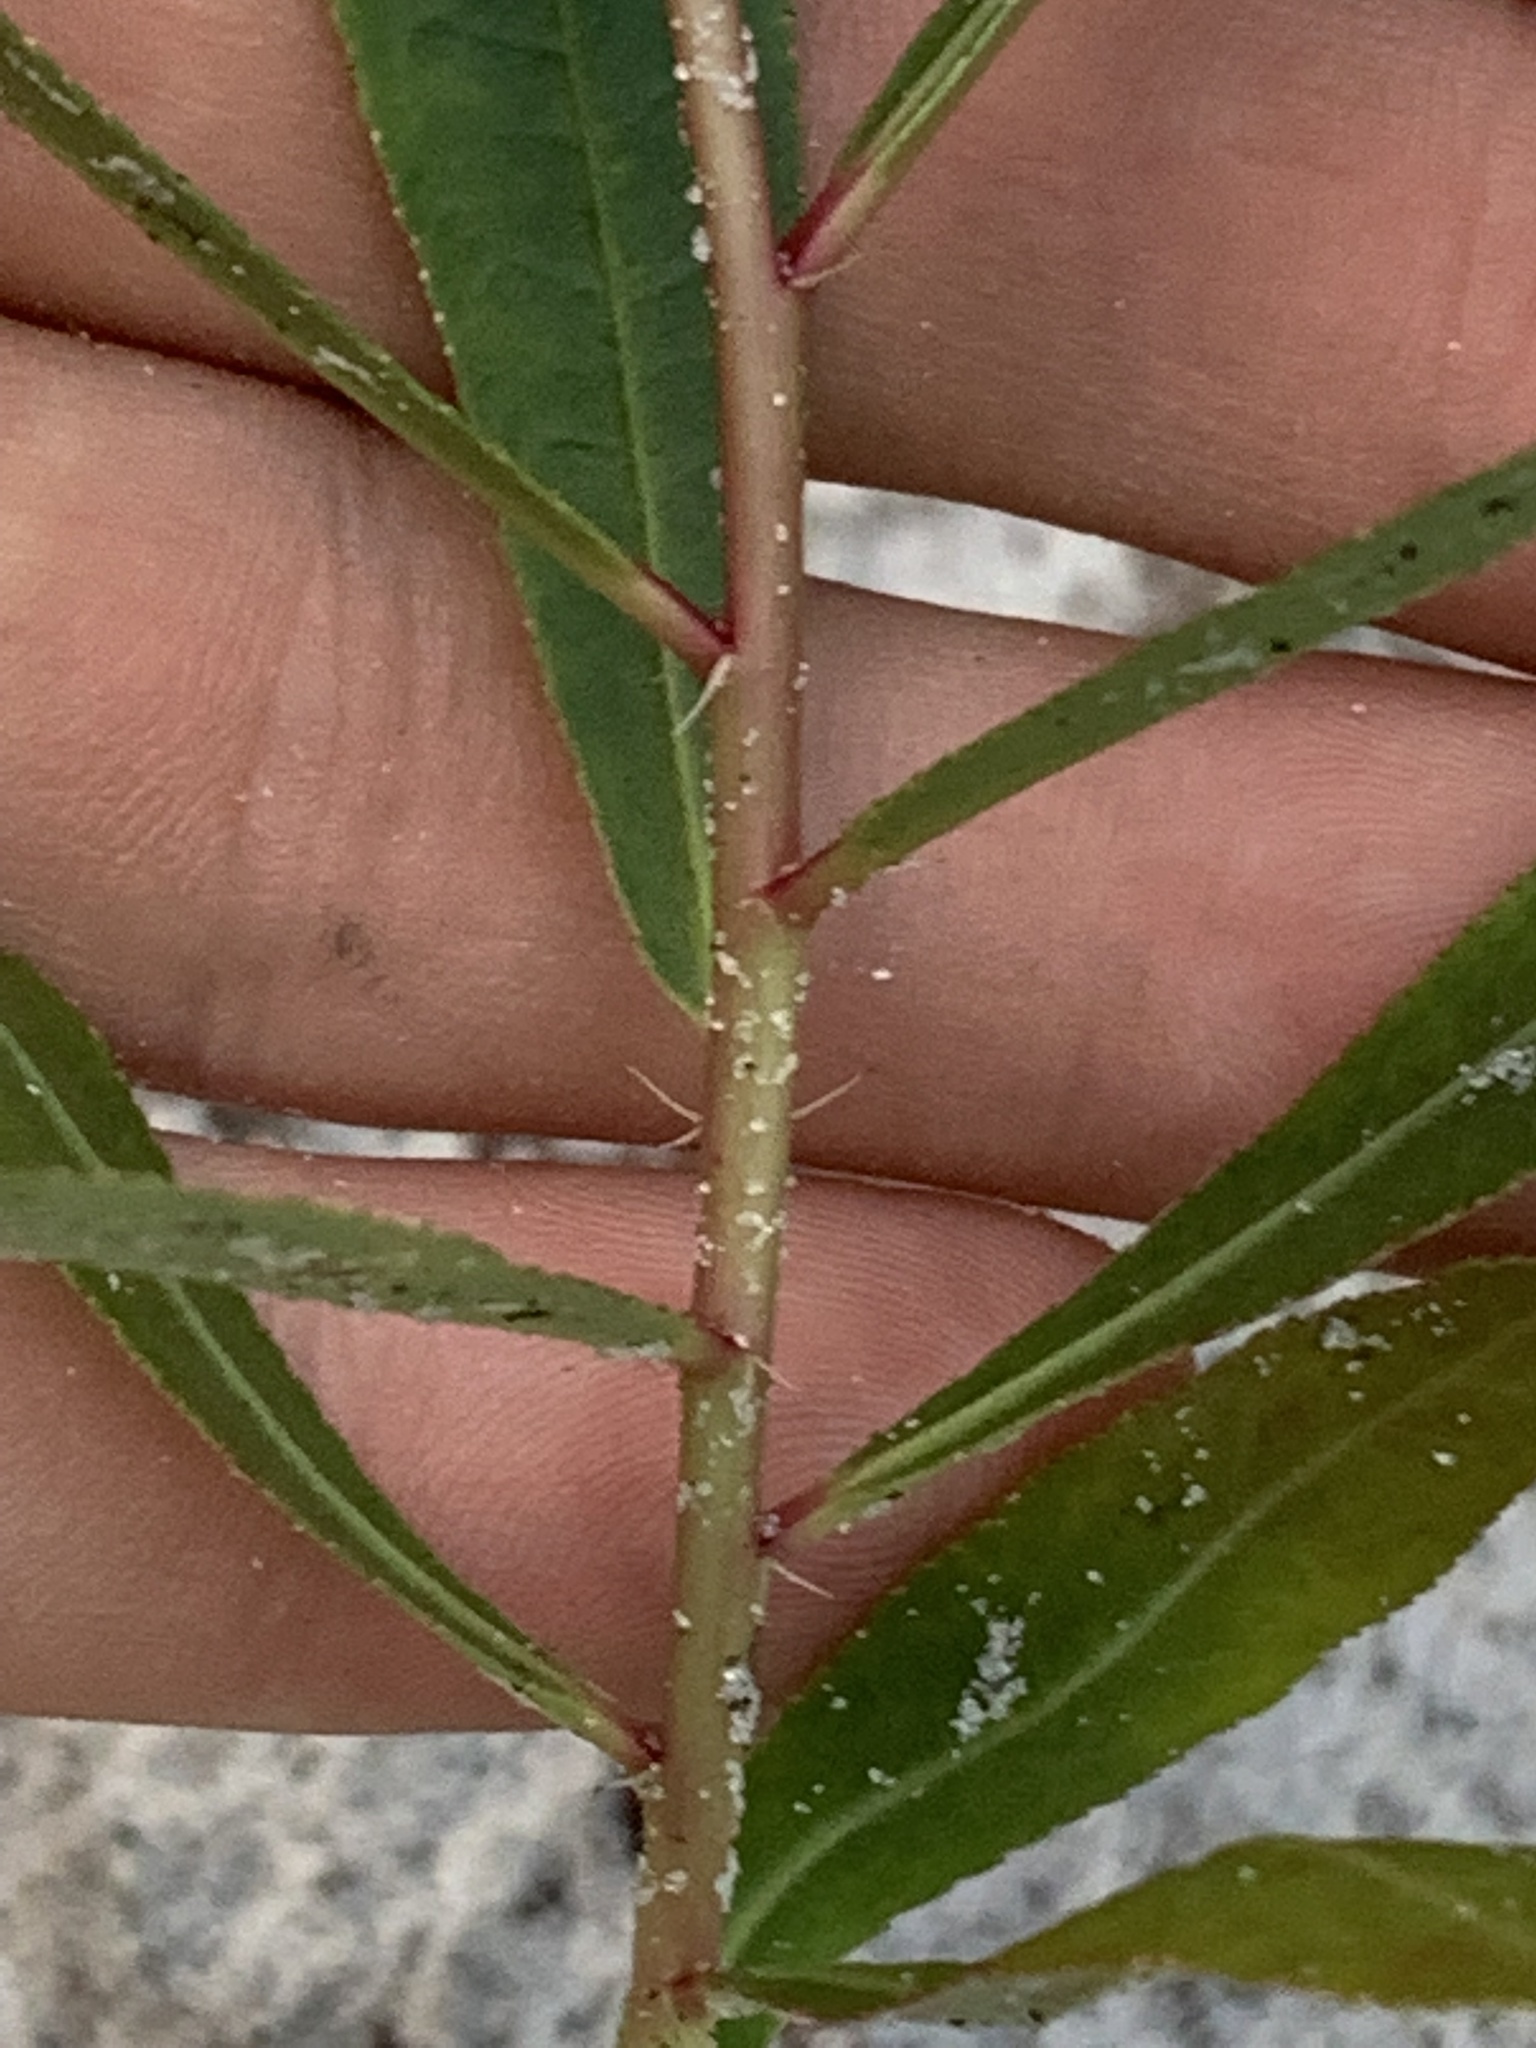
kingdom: Plantae
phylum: Tracheophyta
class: Magnoliopsida
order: Malpighiales
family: Euphorbiaceae
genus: Stillingia
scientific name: Stillingia sylvatica
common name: Queen's-delight
